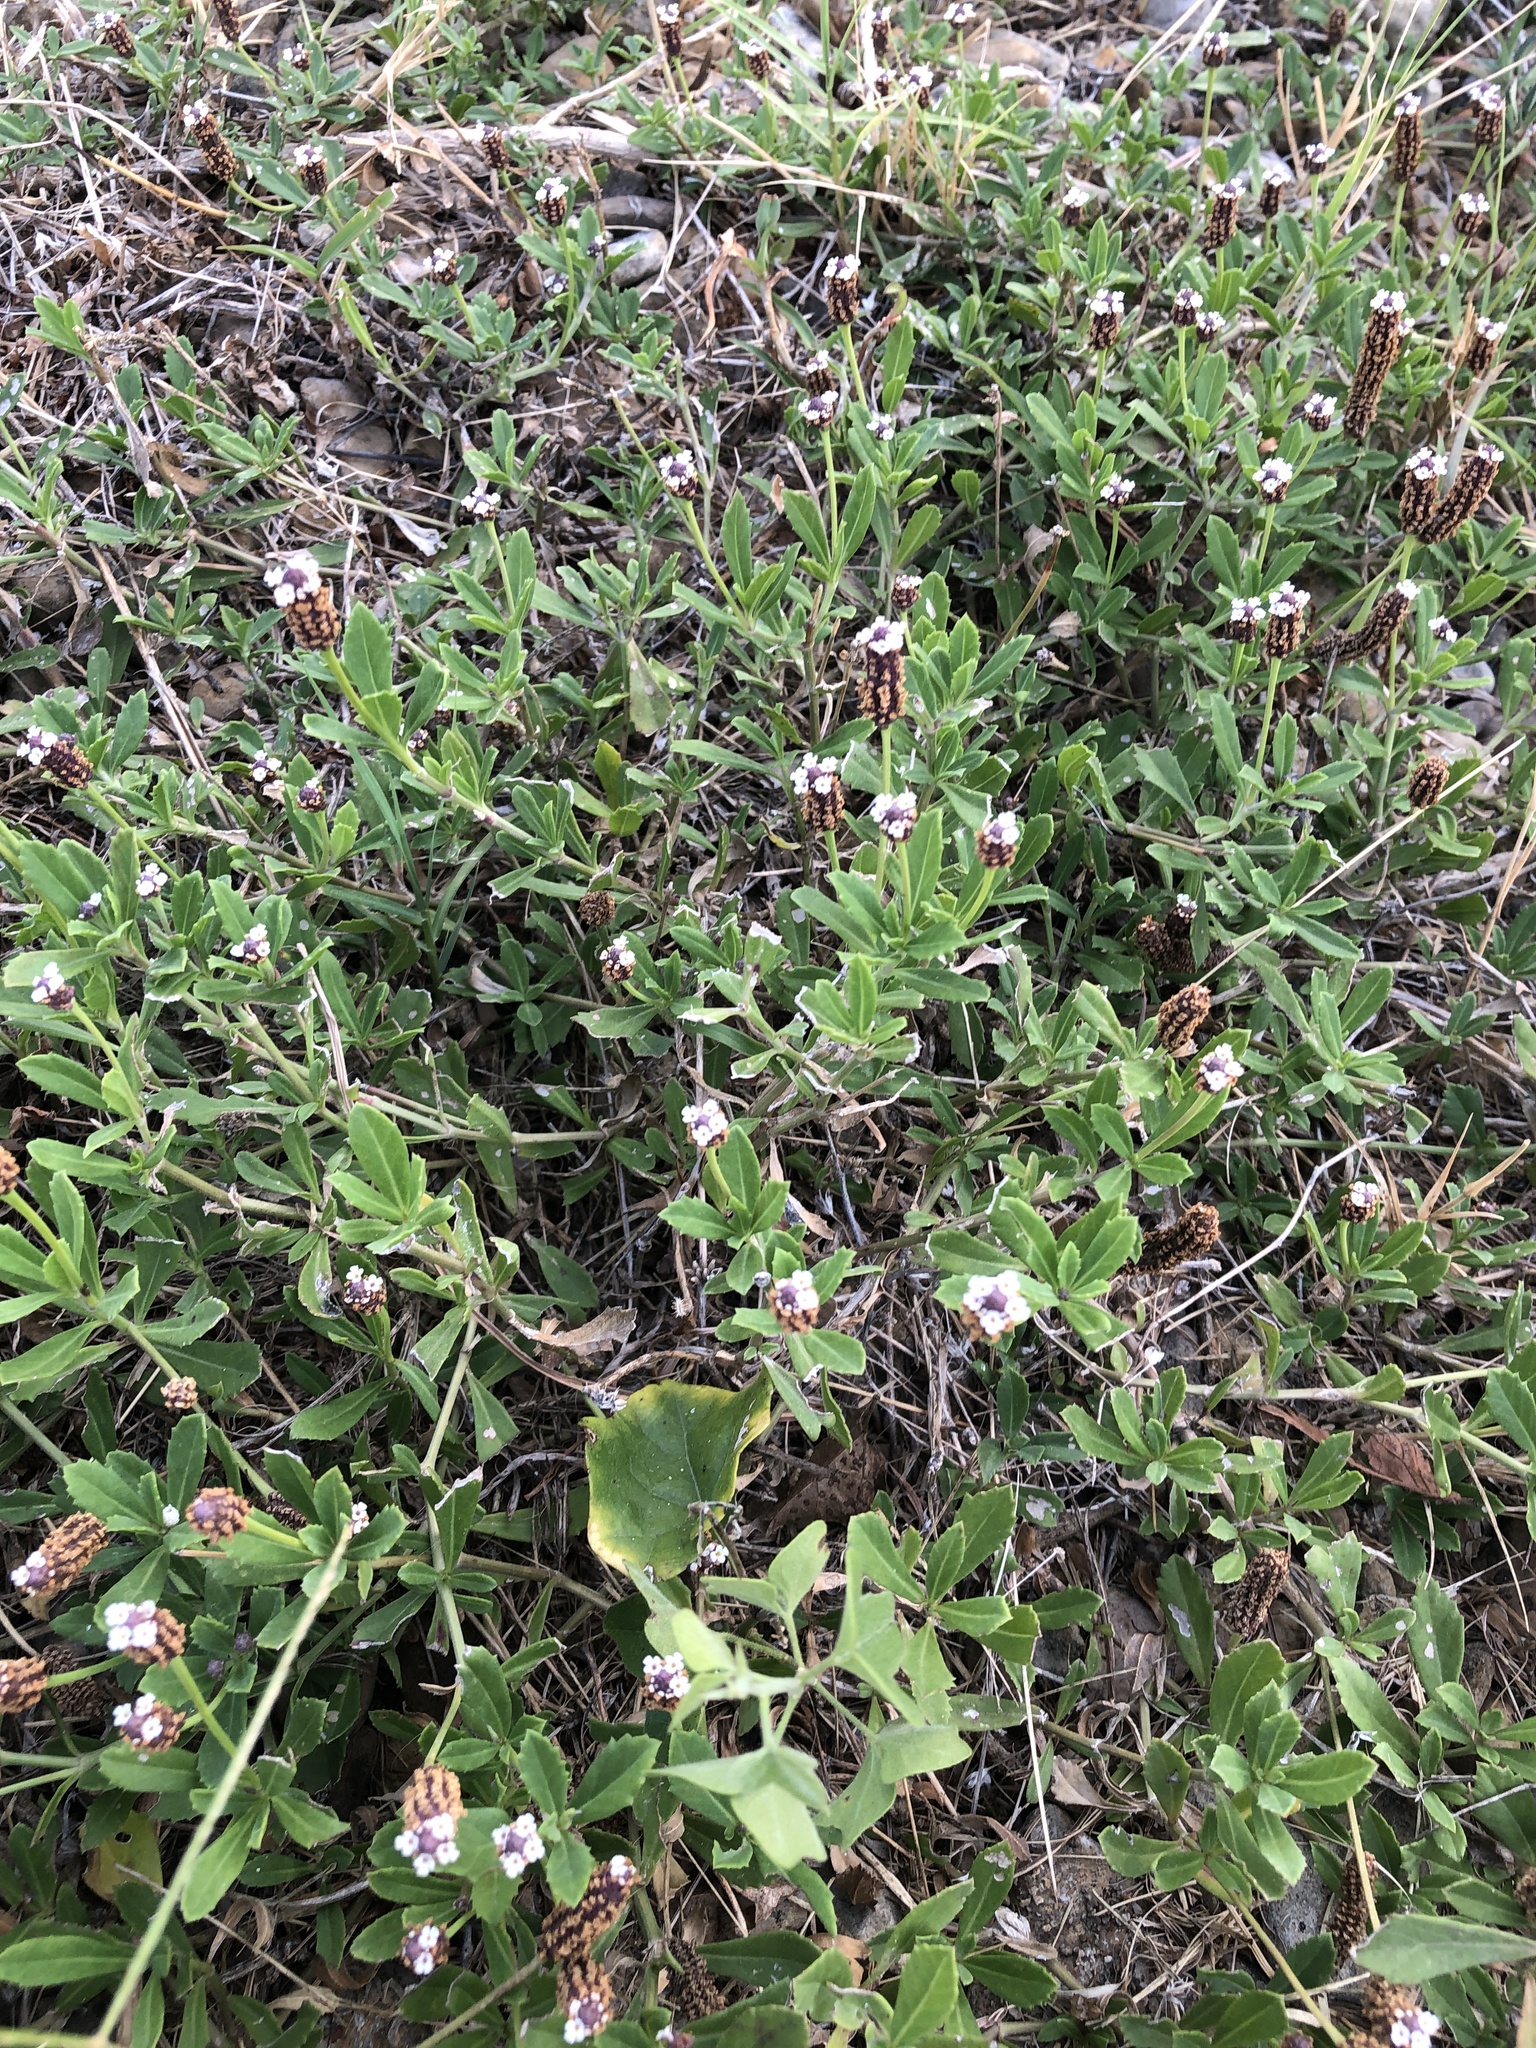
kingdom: Plantae
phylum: Tracheophyta
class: Magnoliopsida
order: Lamiales
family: Verbenaceae
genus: Phyla
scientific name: Phyla nodiflora
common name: Frogfruit
